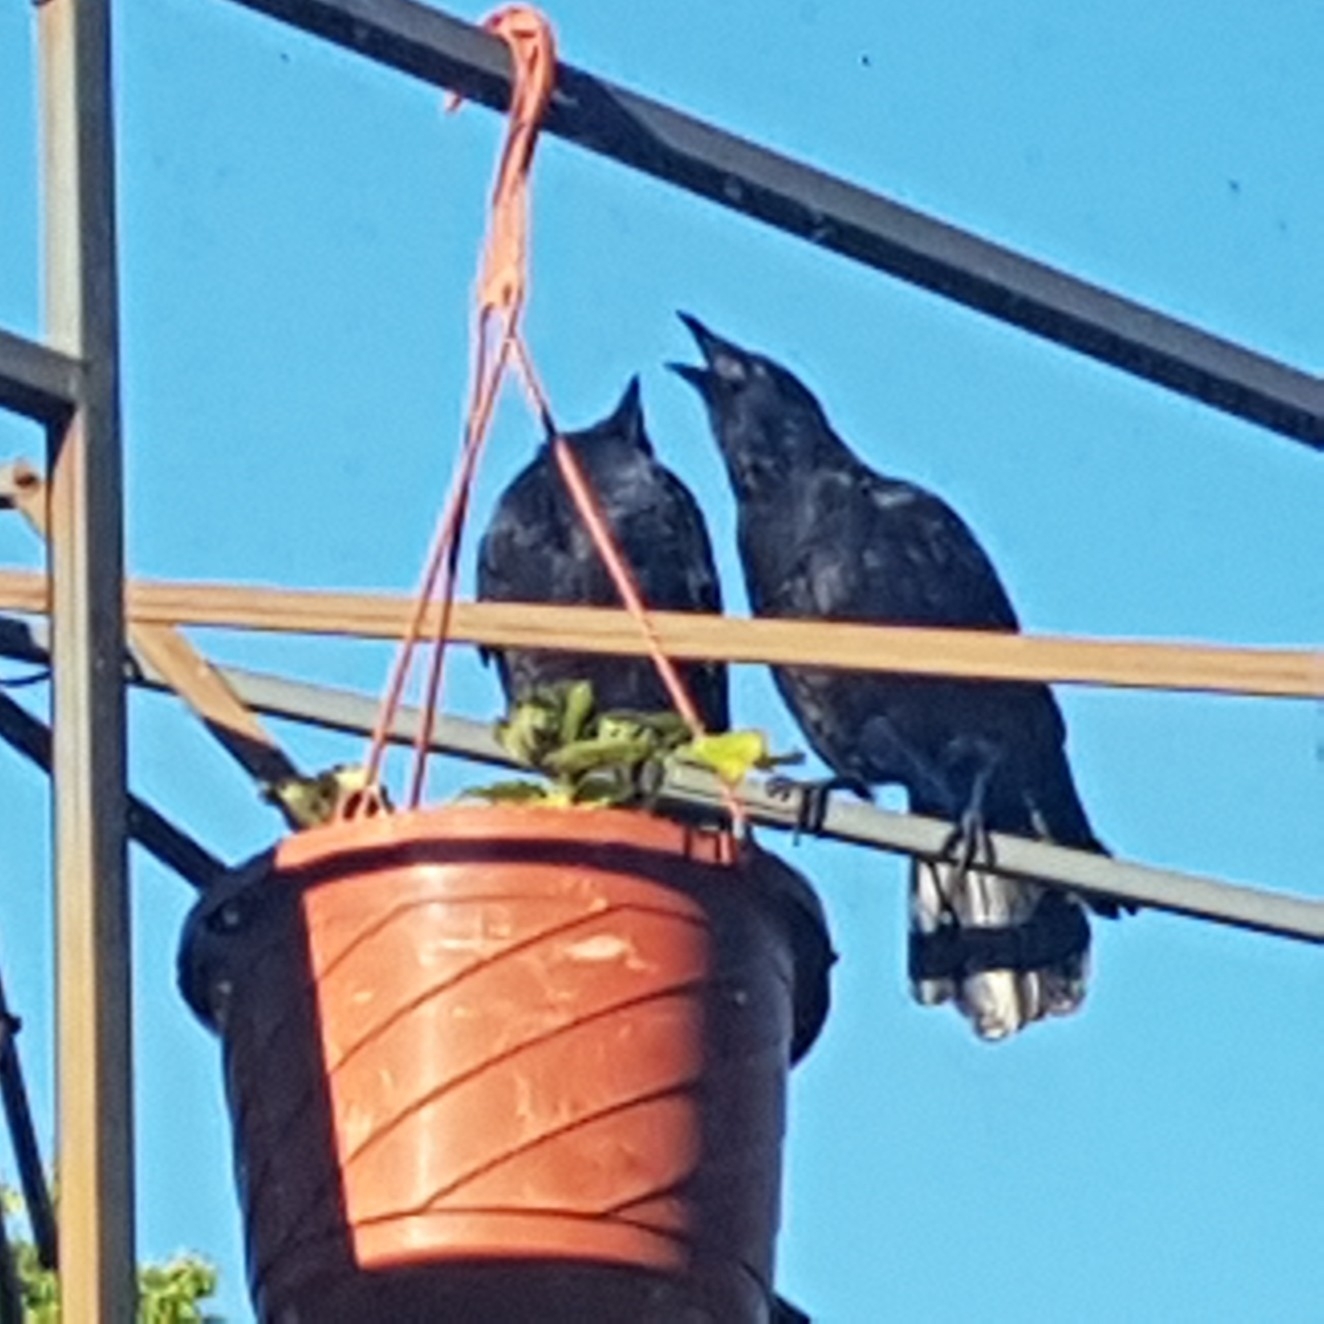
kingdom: Animalia
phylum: Chordata
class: Aves
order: Passeriformes
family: Corvidae
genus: Corvus
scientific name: Corvus brachyrhynchos
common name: American crow
